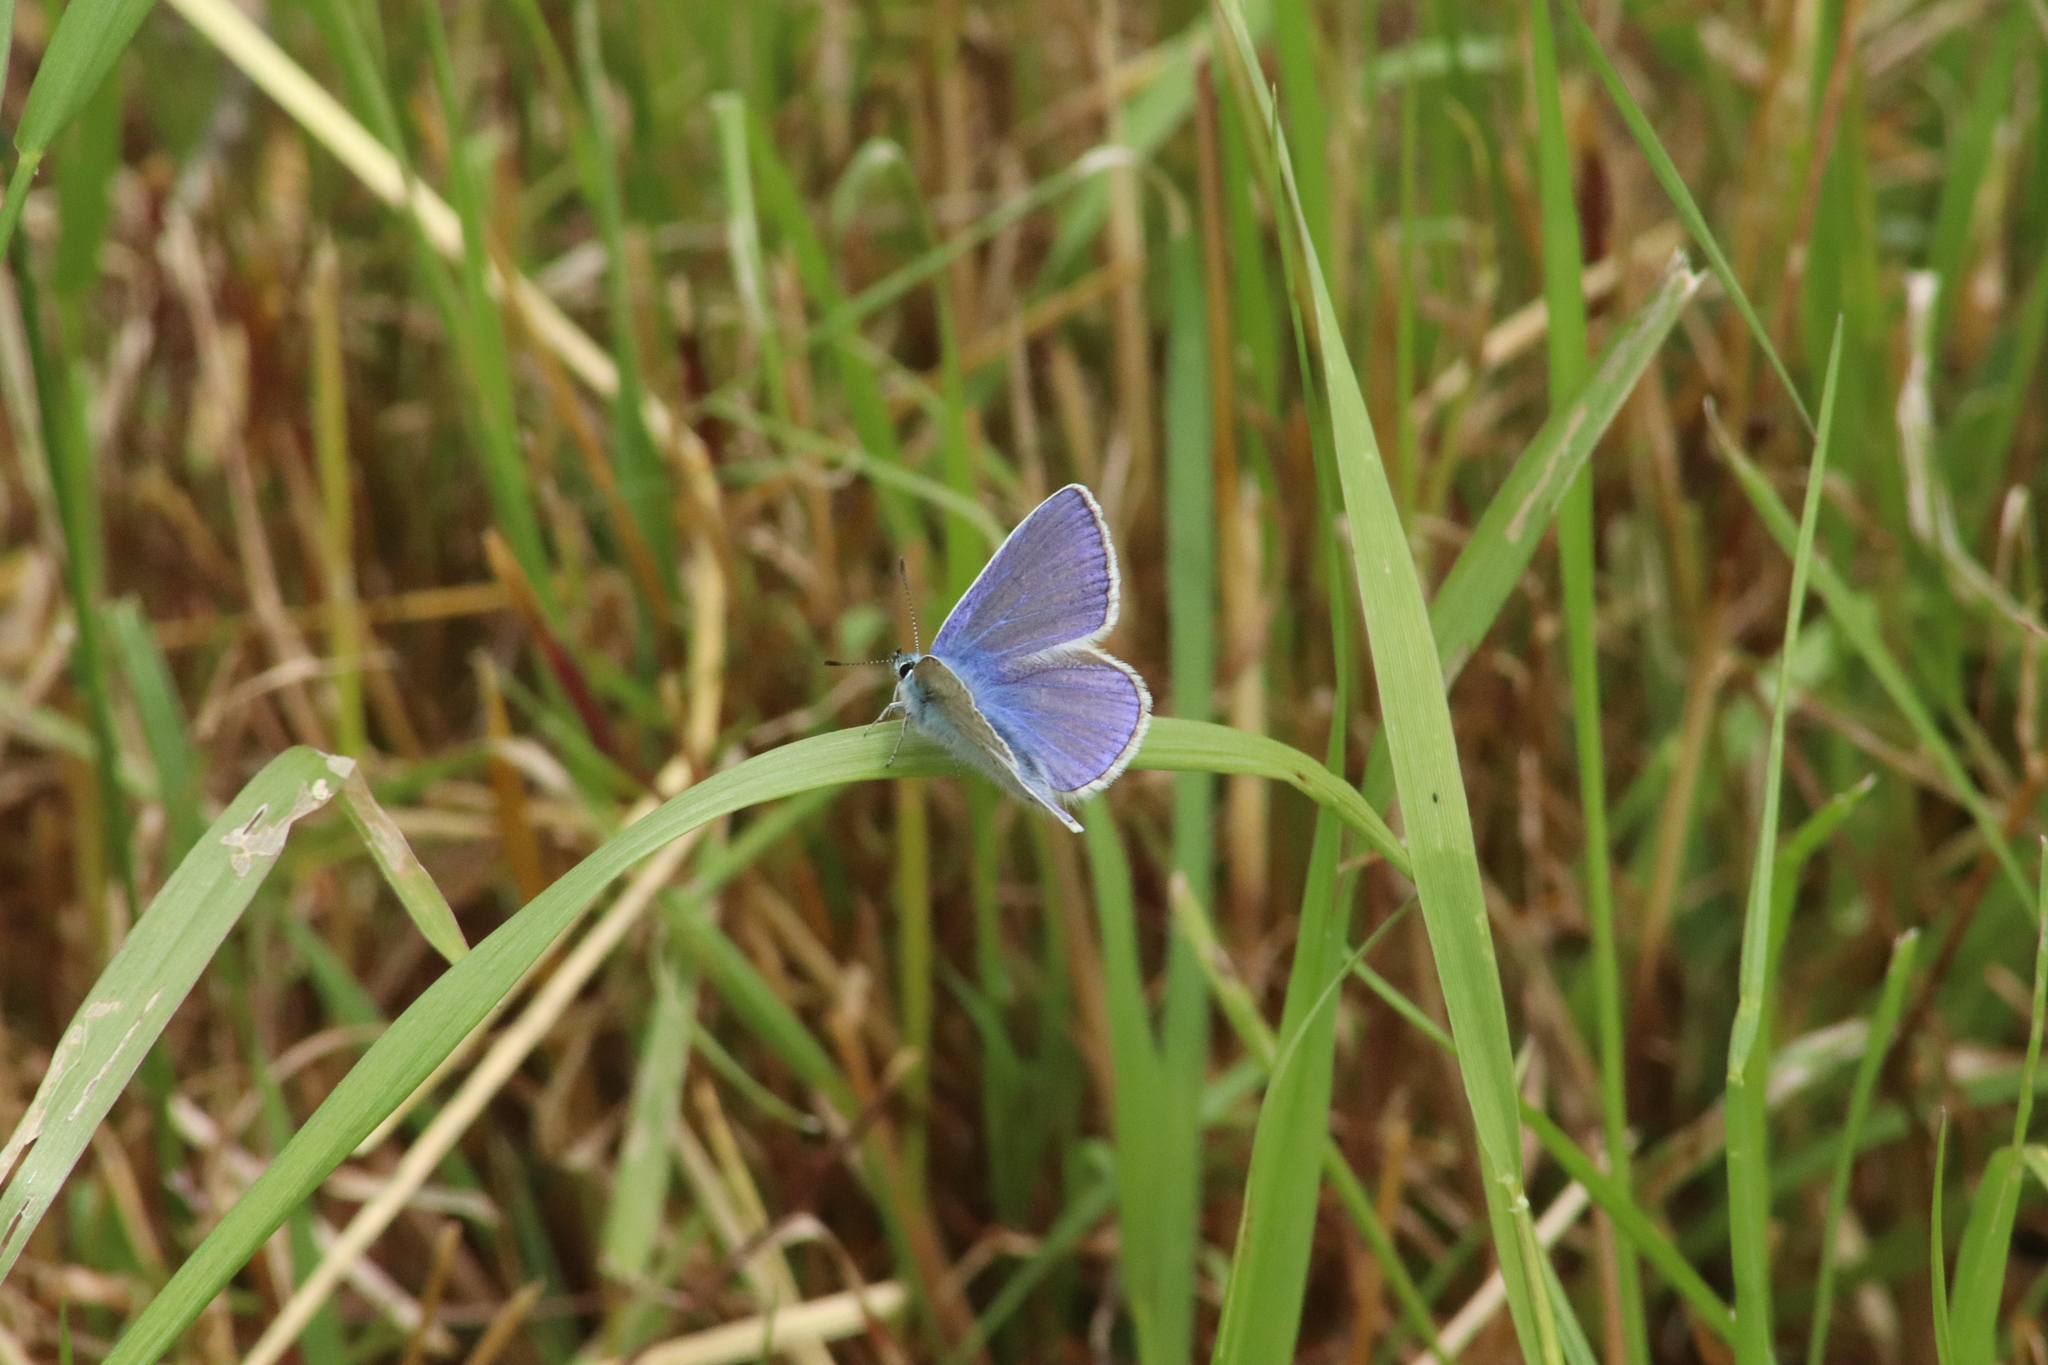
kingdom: Animalia
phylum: Arthropoda
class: Insecta
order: Lepidoptera
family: Lycaenidae
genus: Polyommatus
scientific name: Polyommatus icarus
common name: Common blue
